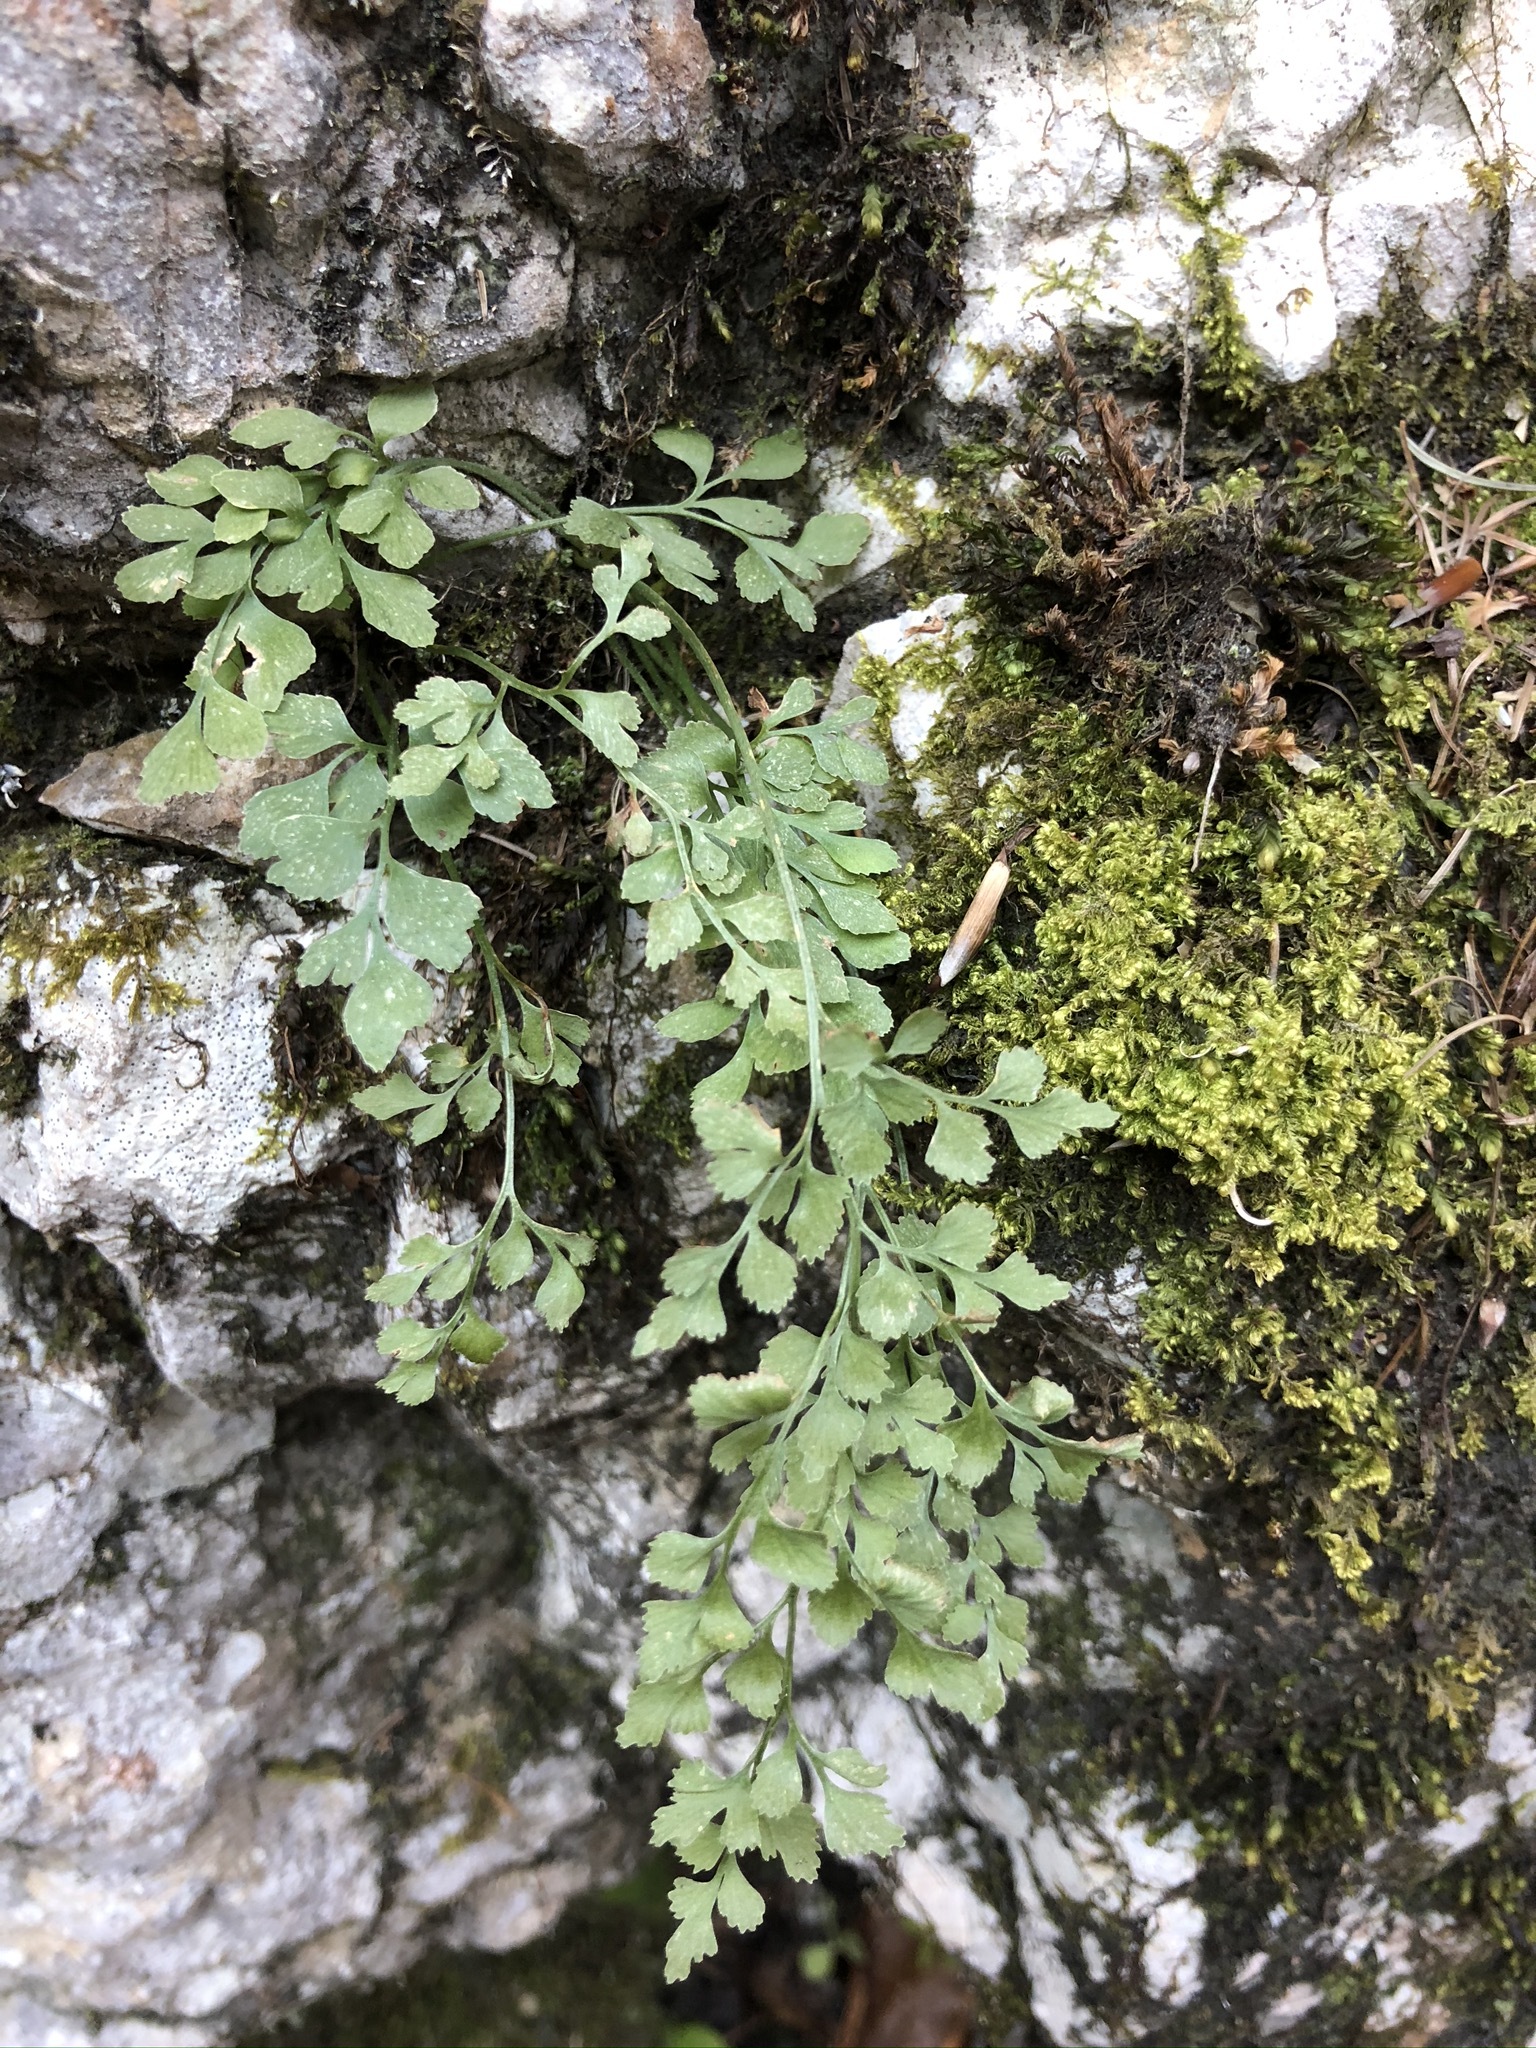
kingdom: Plantae
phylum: Tracheophyta
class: Polypodiopsida
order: Polypodiales
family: Aspleniaceae
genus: Asplenium
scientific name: Asplenium ruta-muraria
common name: Wall-rue
